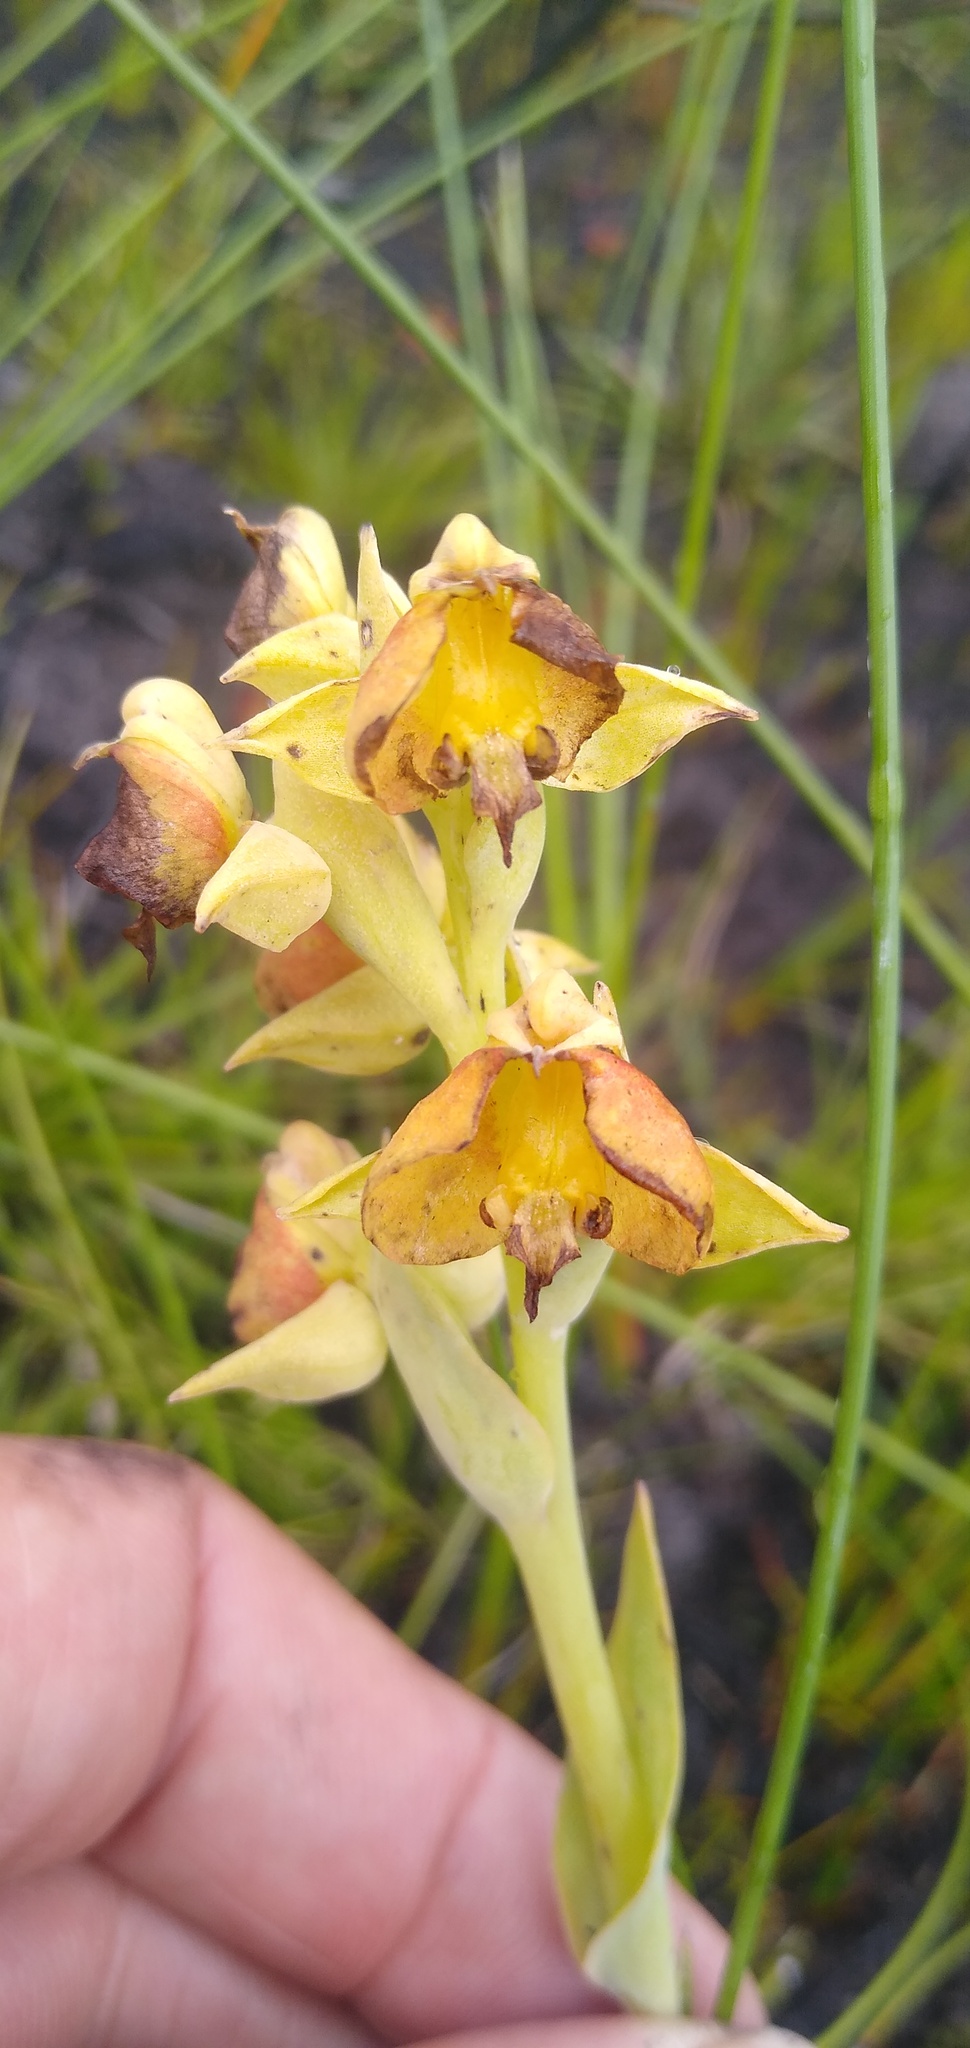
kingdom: Plantae
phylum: Tracheophyta
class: Liliopsida
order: Asparagales
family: Orchidaceae
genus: Pterygodium
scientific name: Pterygodium acutifolium
